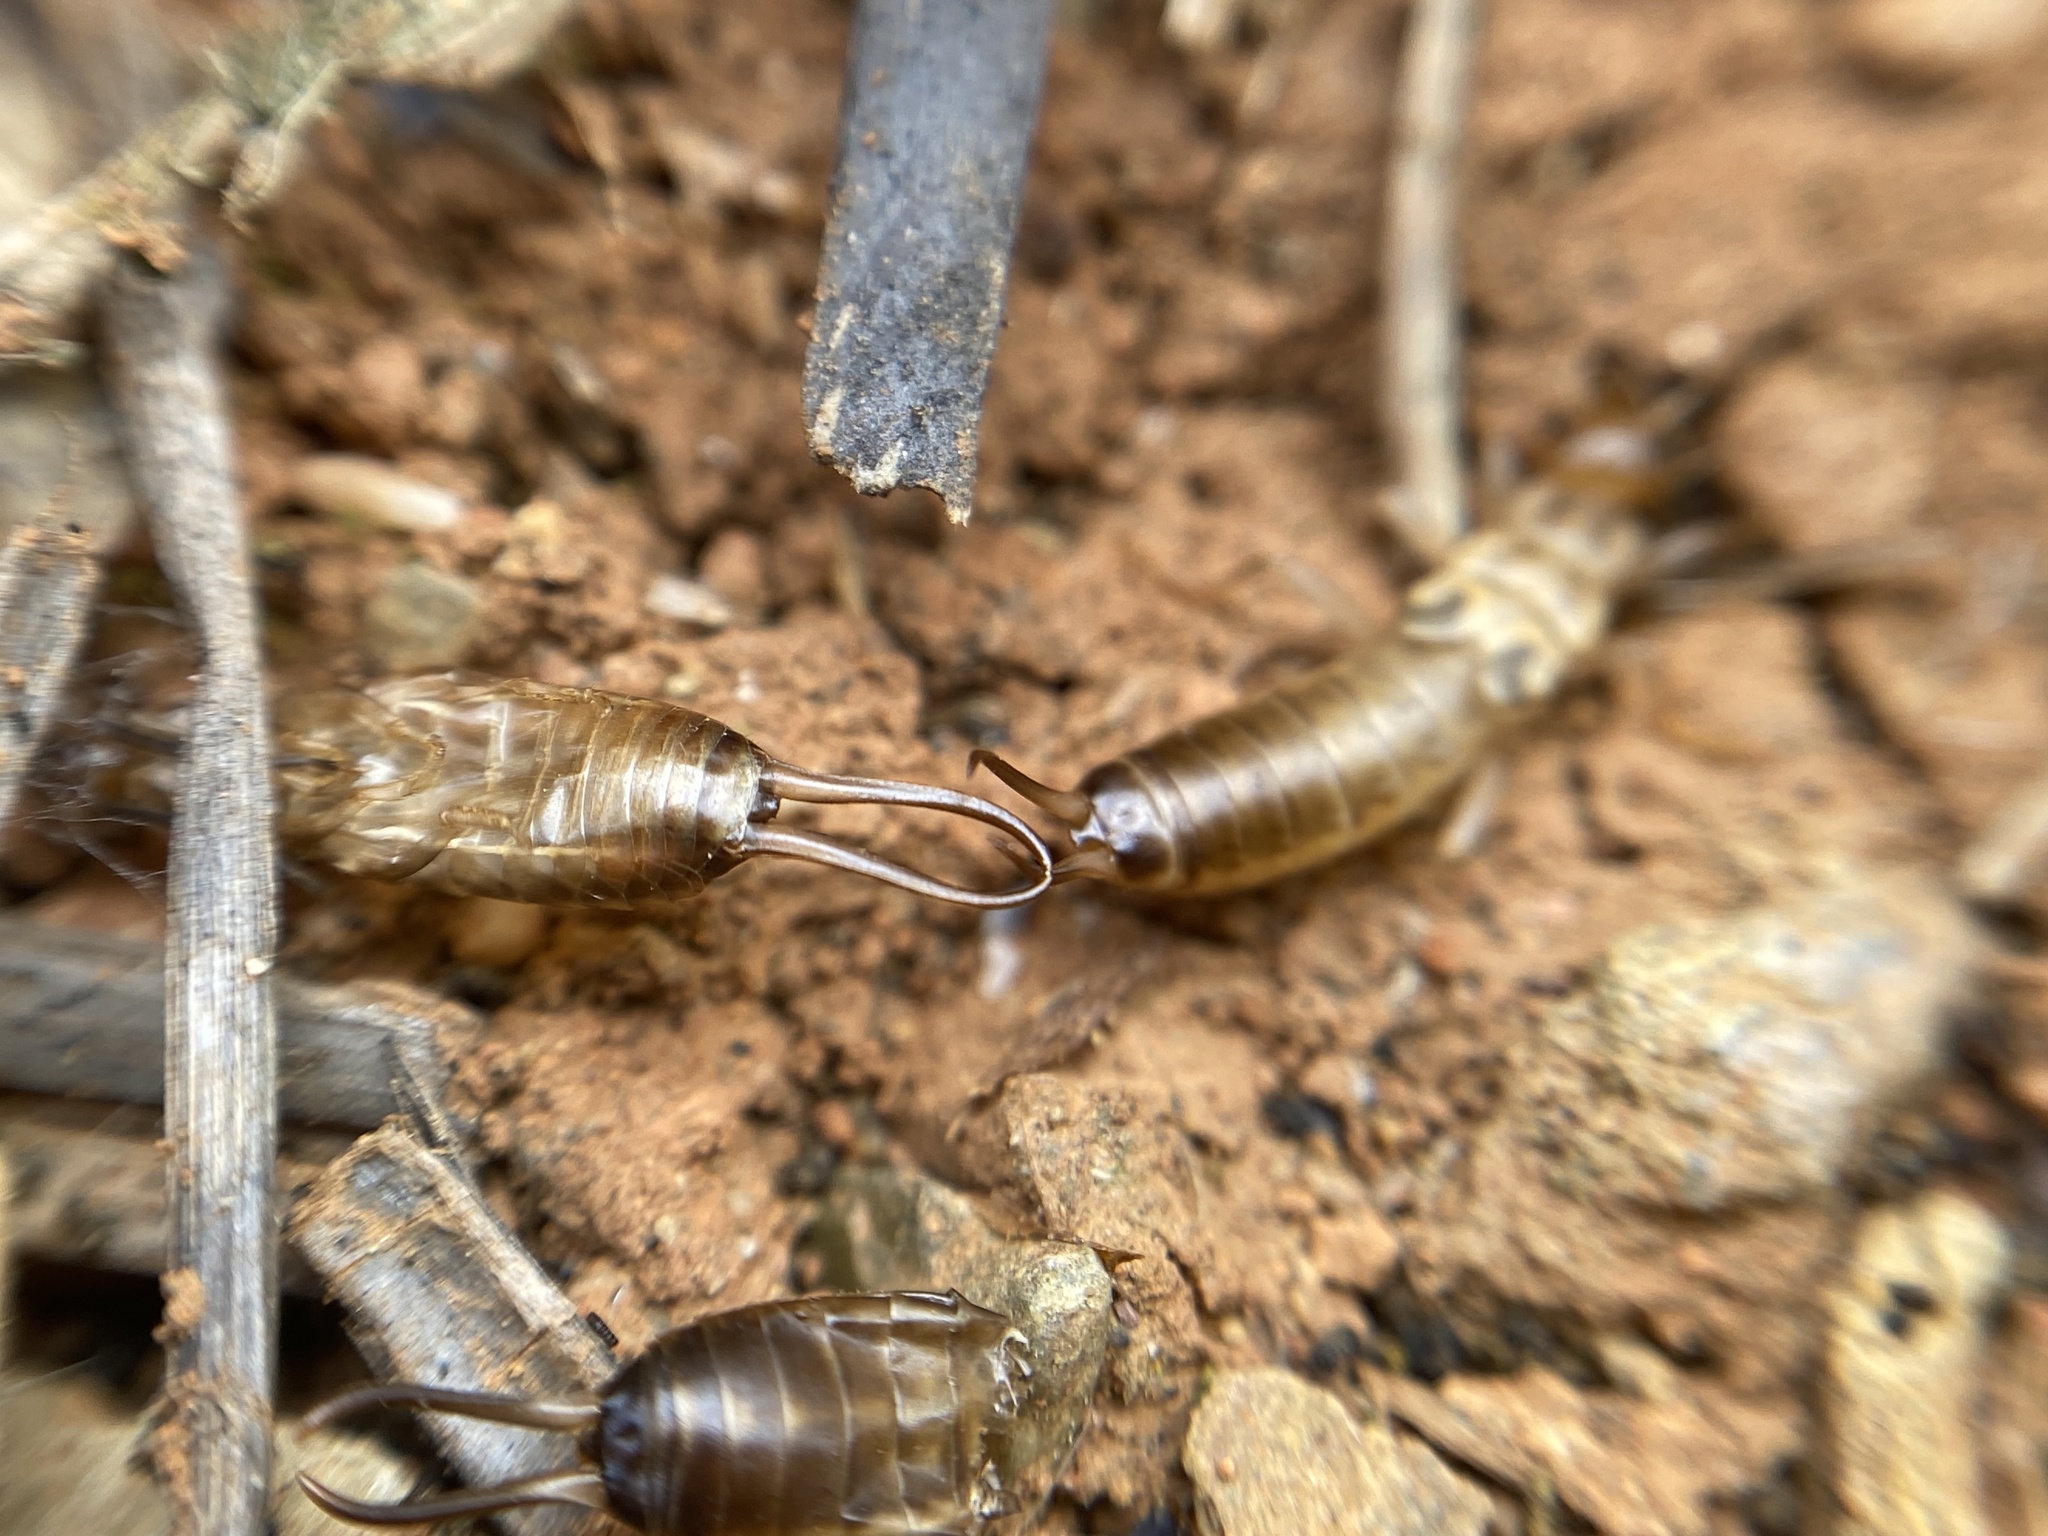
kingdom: Animalia
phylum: Arthropoda
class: Insecta
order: Dermaptera
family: Forficulidae
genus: Forficula
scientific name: Forficula
